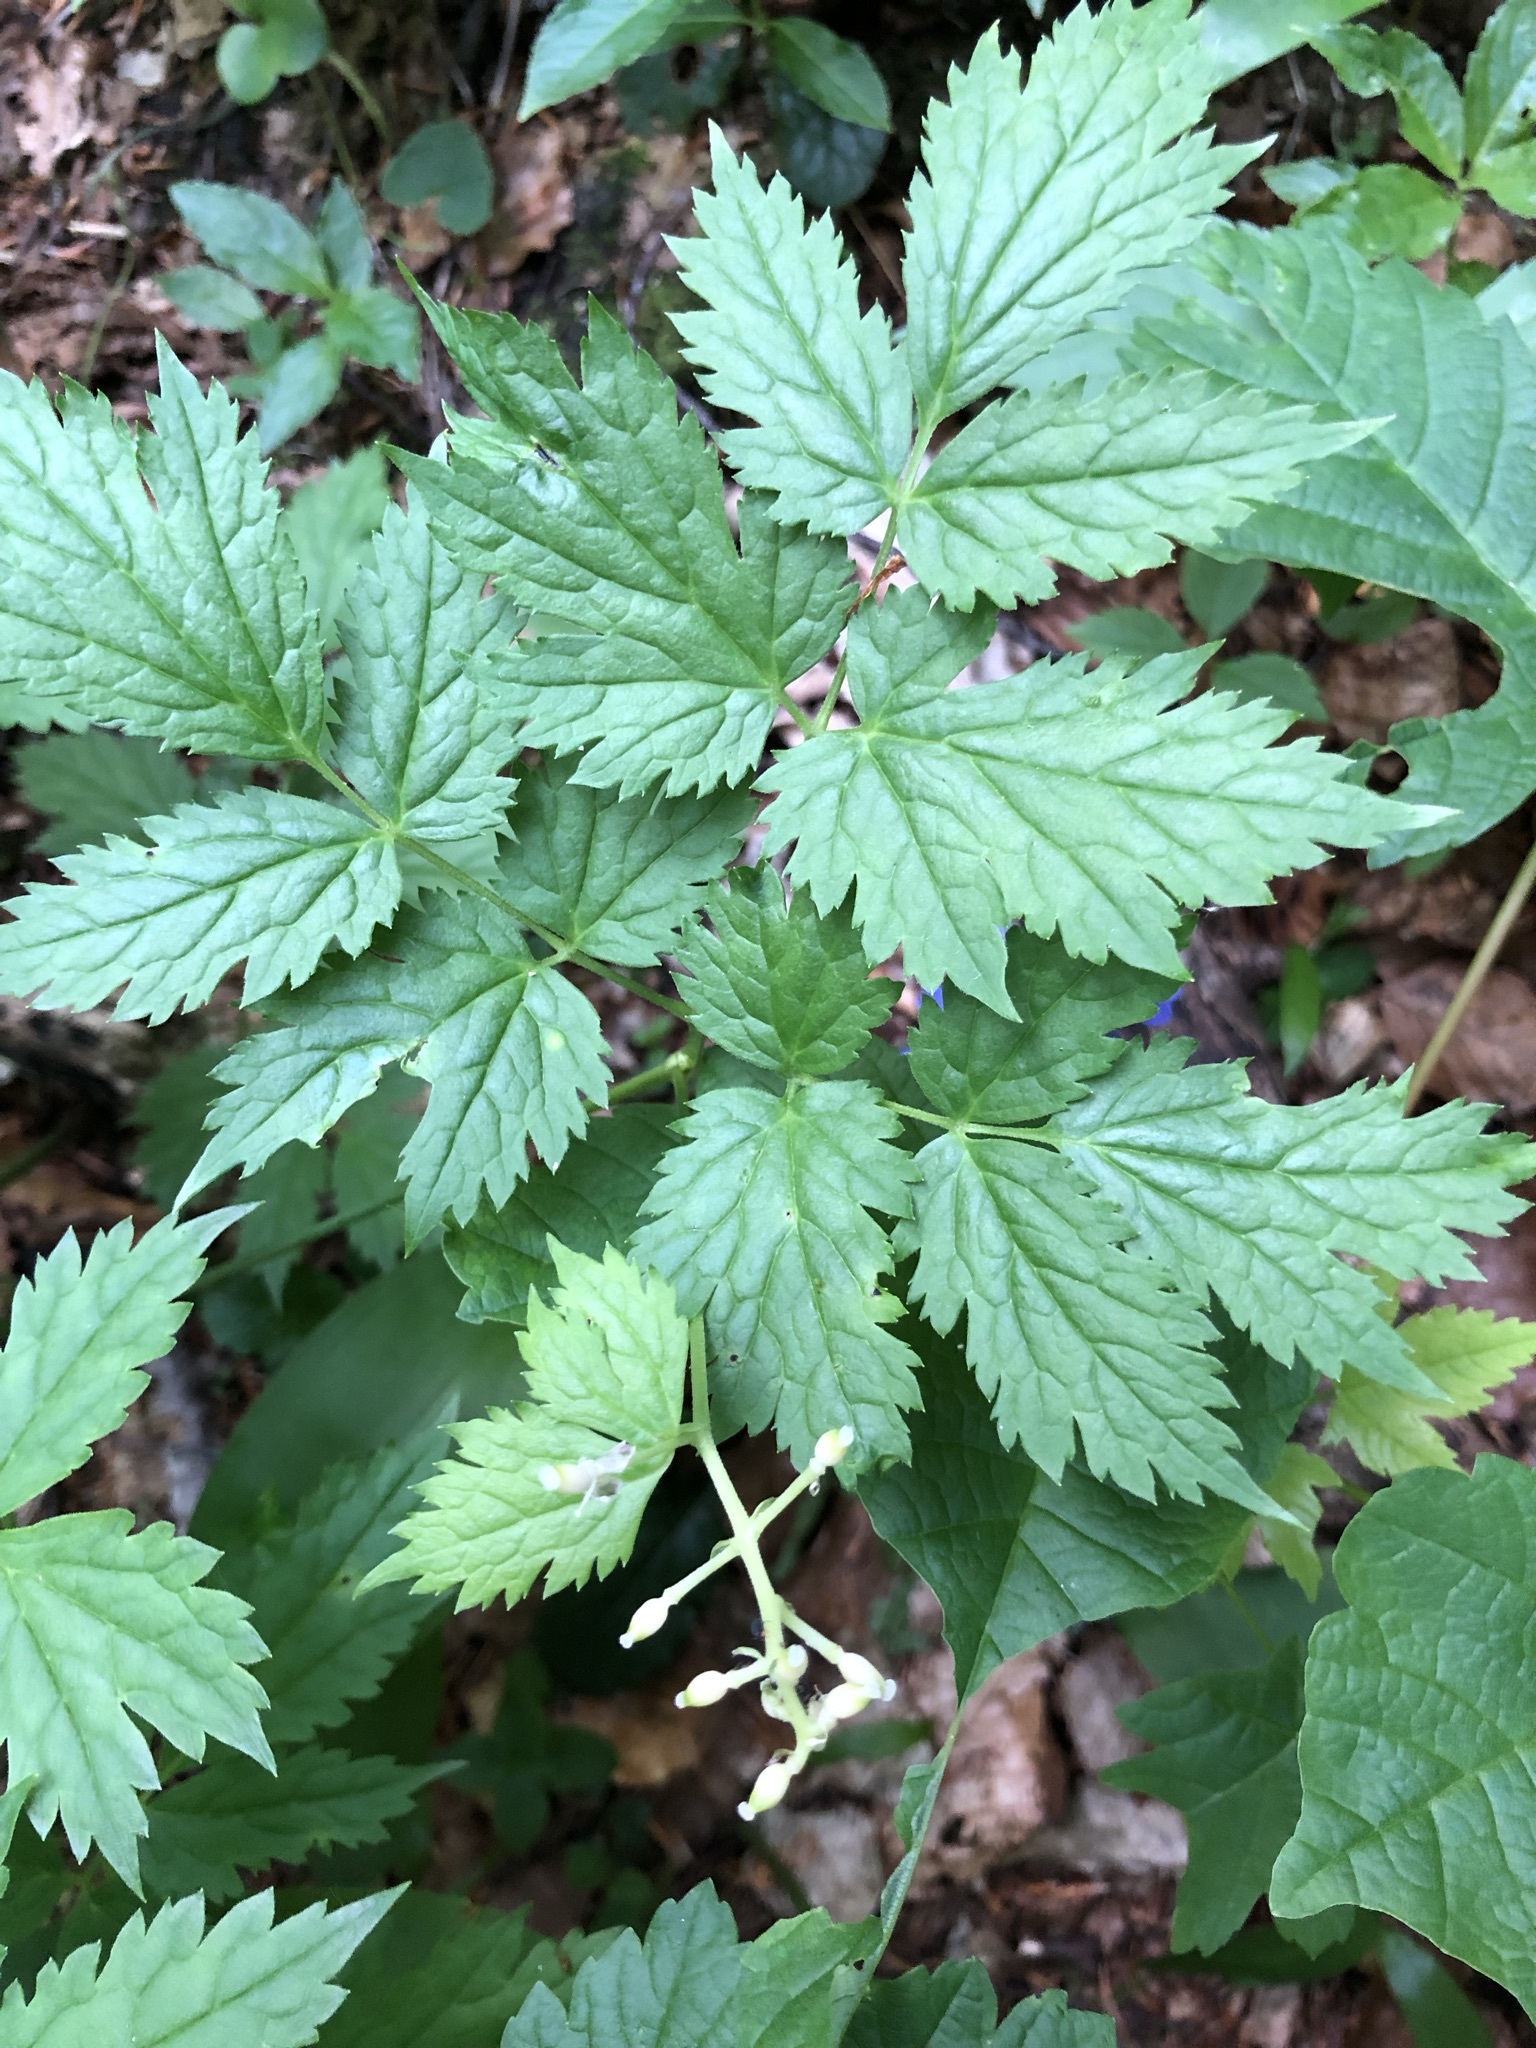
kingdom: Plantae
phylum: Tracheophyta
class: Magnoliopsida
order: Ranunculales
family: Ranunculaceae
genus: Actaea
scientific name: Actaea spicata
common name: Baneberry
